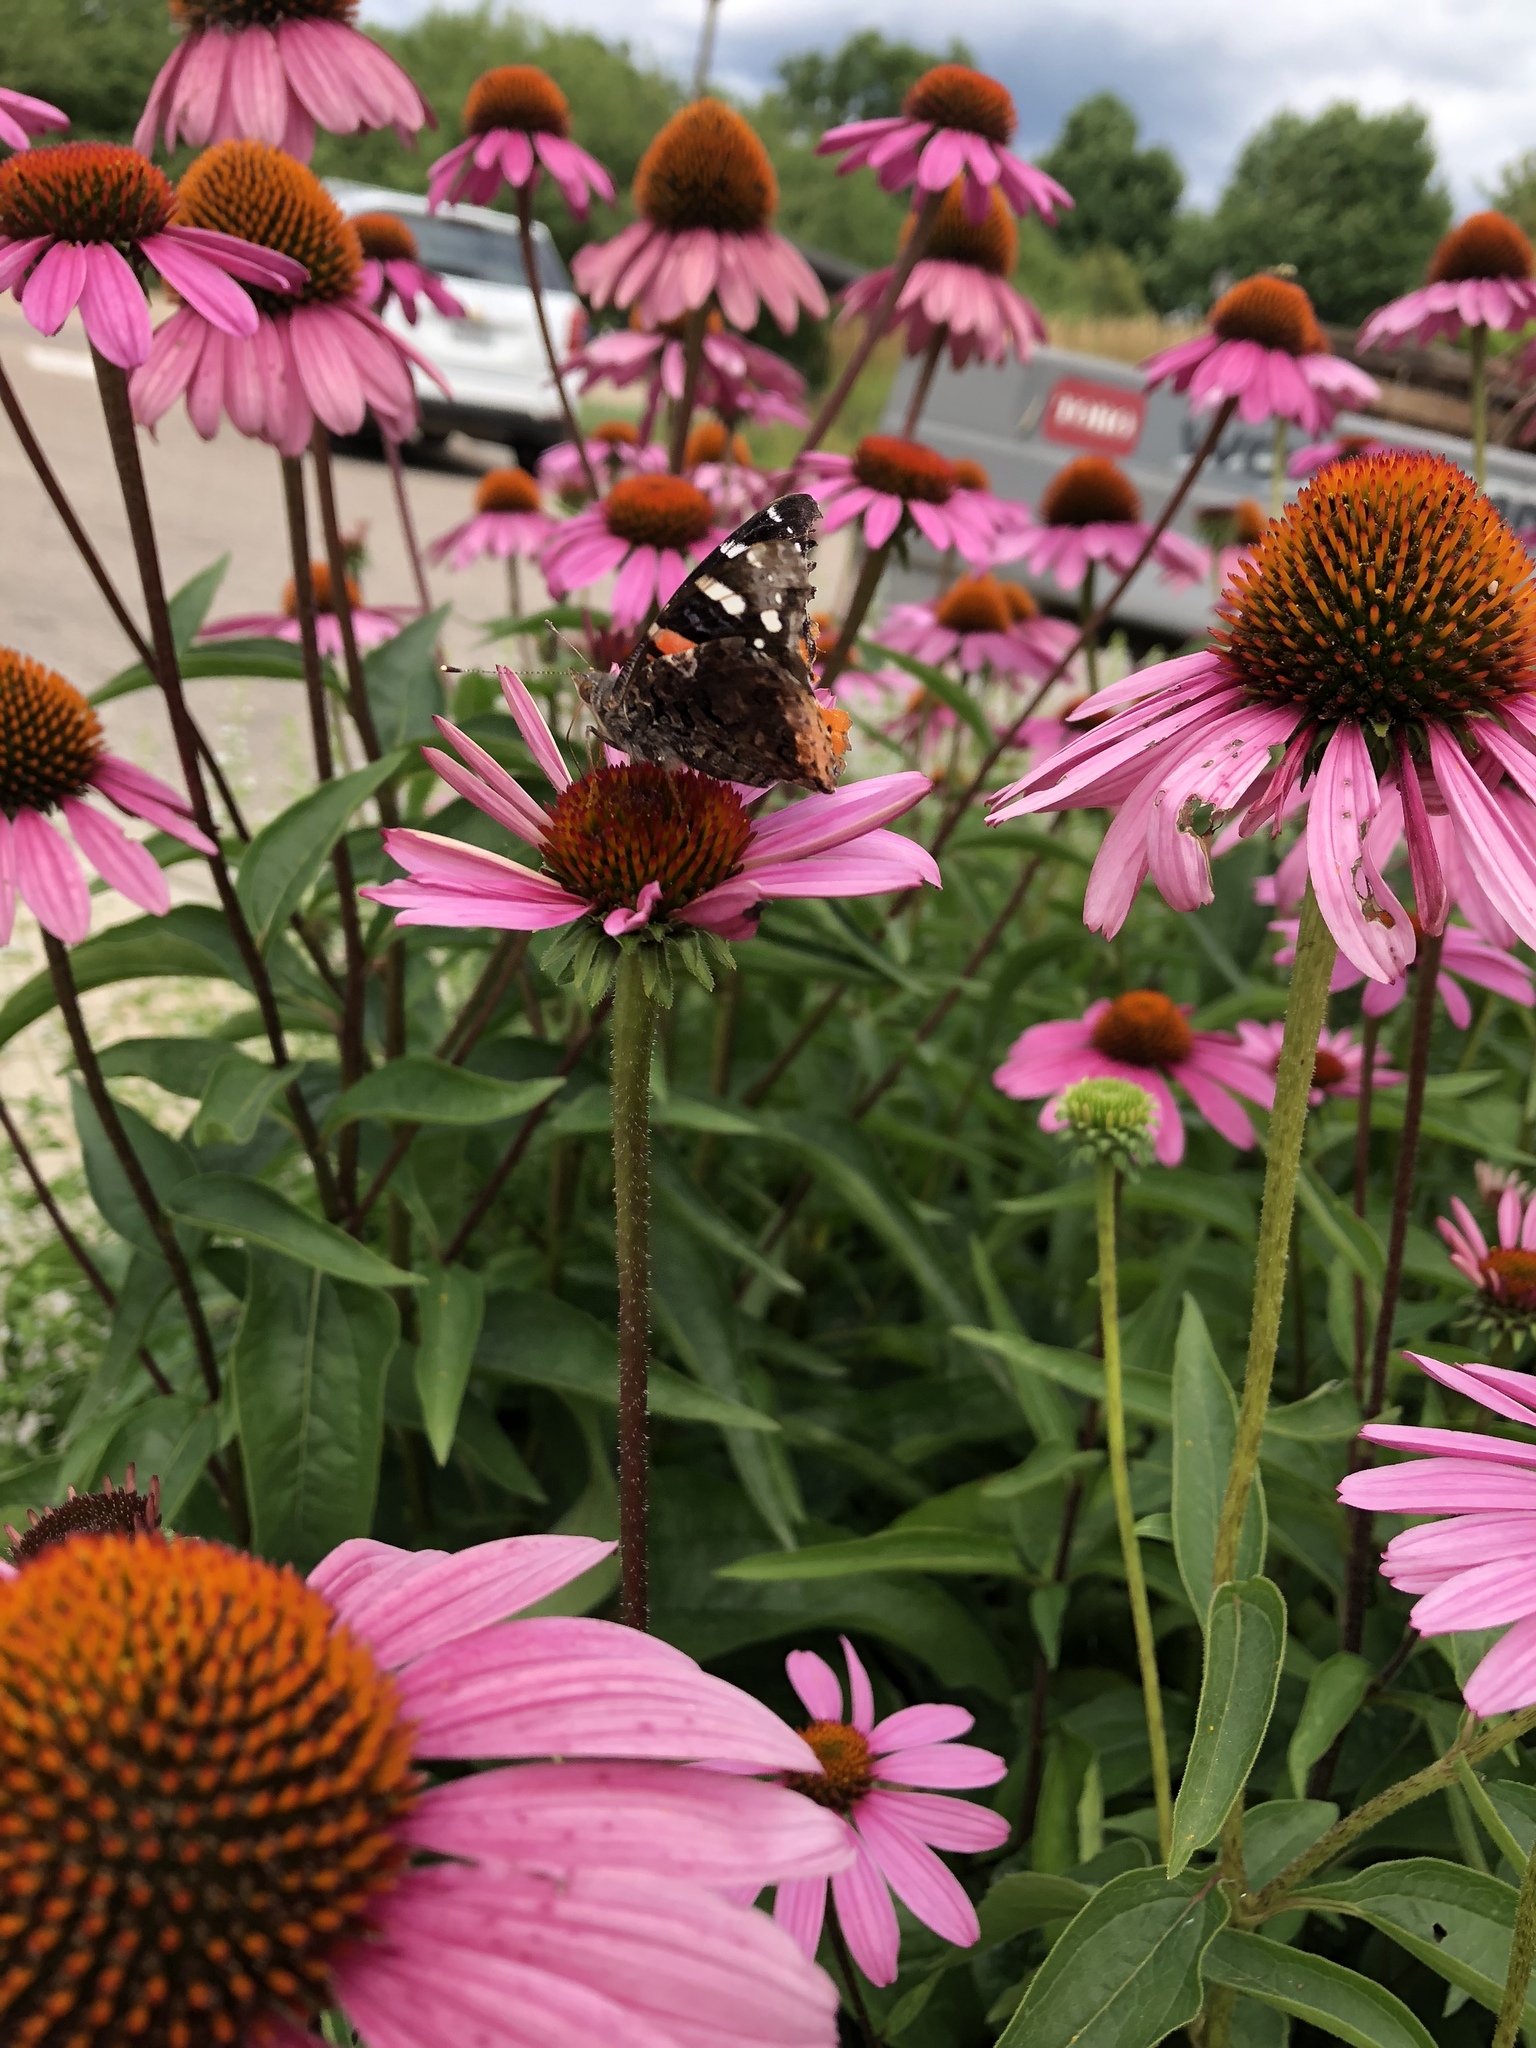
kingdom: Animalia
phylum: Arthropoda
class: Insecta
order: Lepidoptera
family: Nymphalidae
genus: Vanessa
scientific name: Vanessa atalanta
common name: Red admiral
